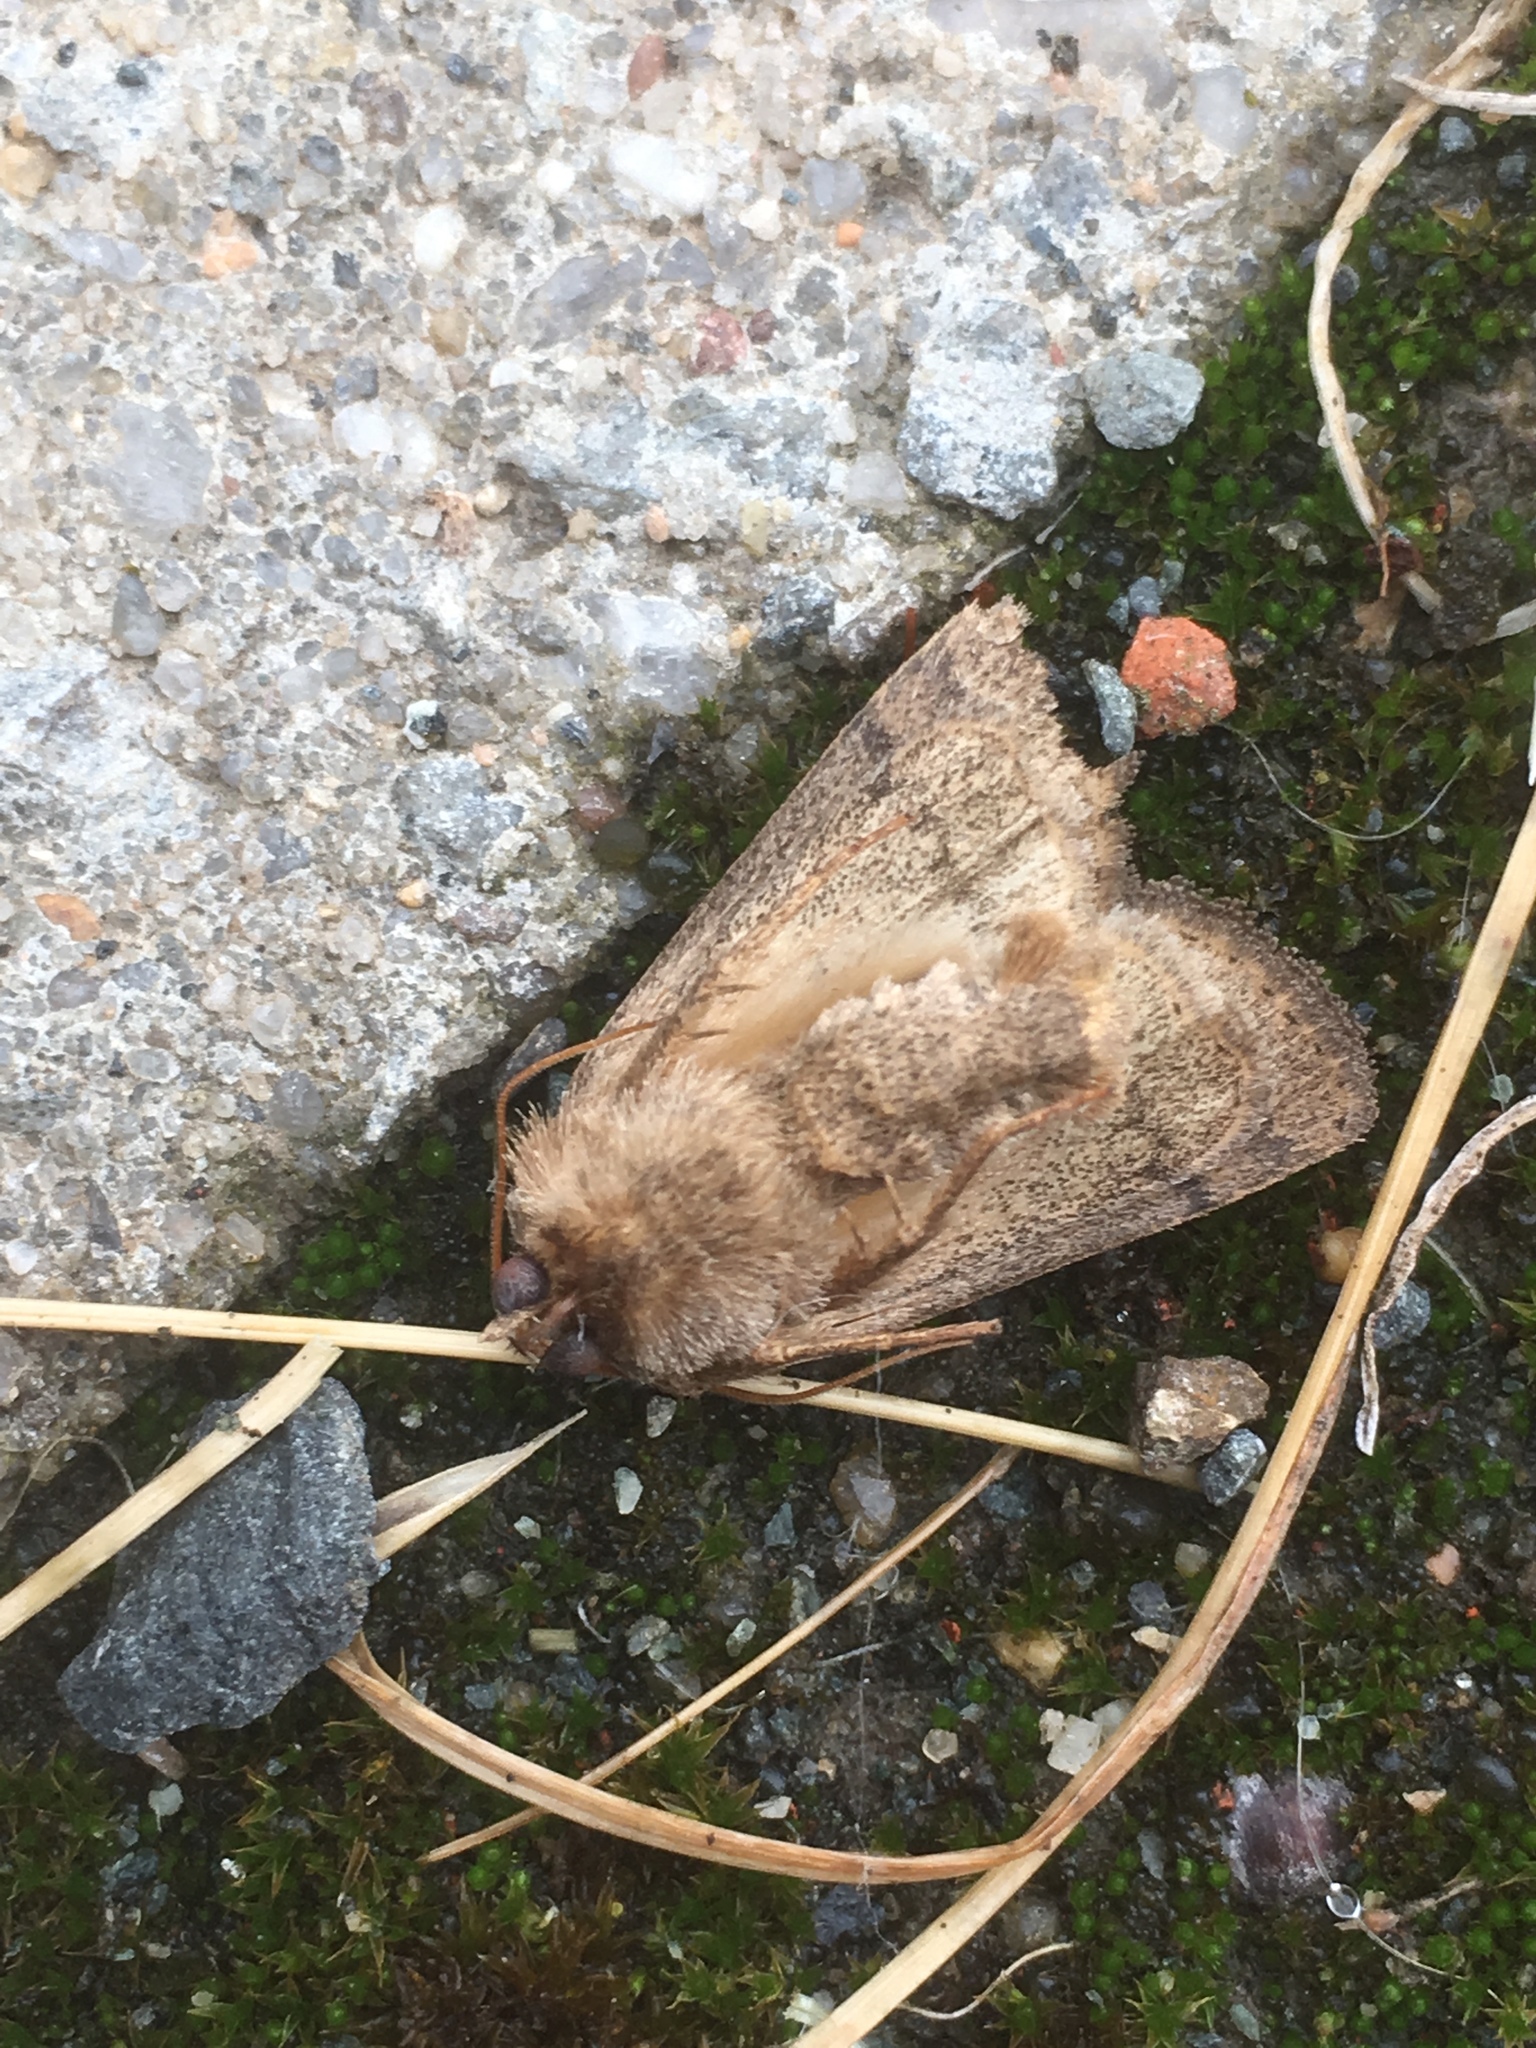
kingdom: Animalia
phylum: Arthropoda
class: Insecta
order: Lepidoptera
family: Noctuidae
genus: Hoplodrina
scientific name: Hoplodrina octogenaria
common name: Uncertain
